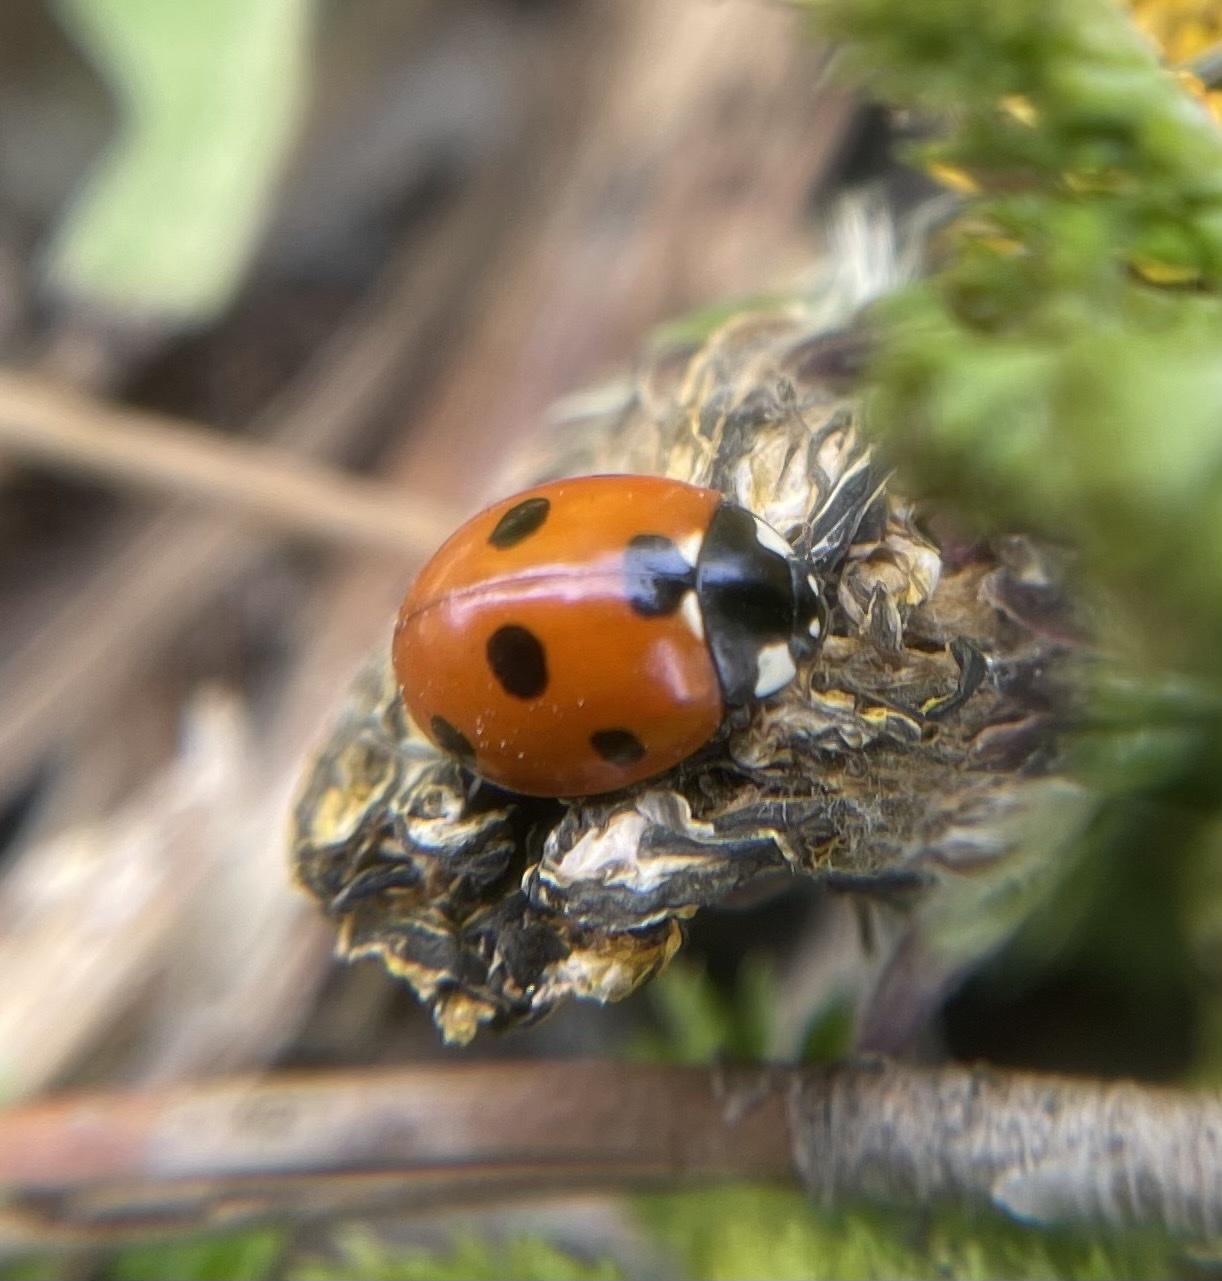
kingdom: Animalia
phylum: Arthropoda
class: Insecta
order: Coleoptera
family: Coccinellidae
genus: Coccinella
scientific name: Coccinella septempunctata
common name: Sevenspotted lady beetle
